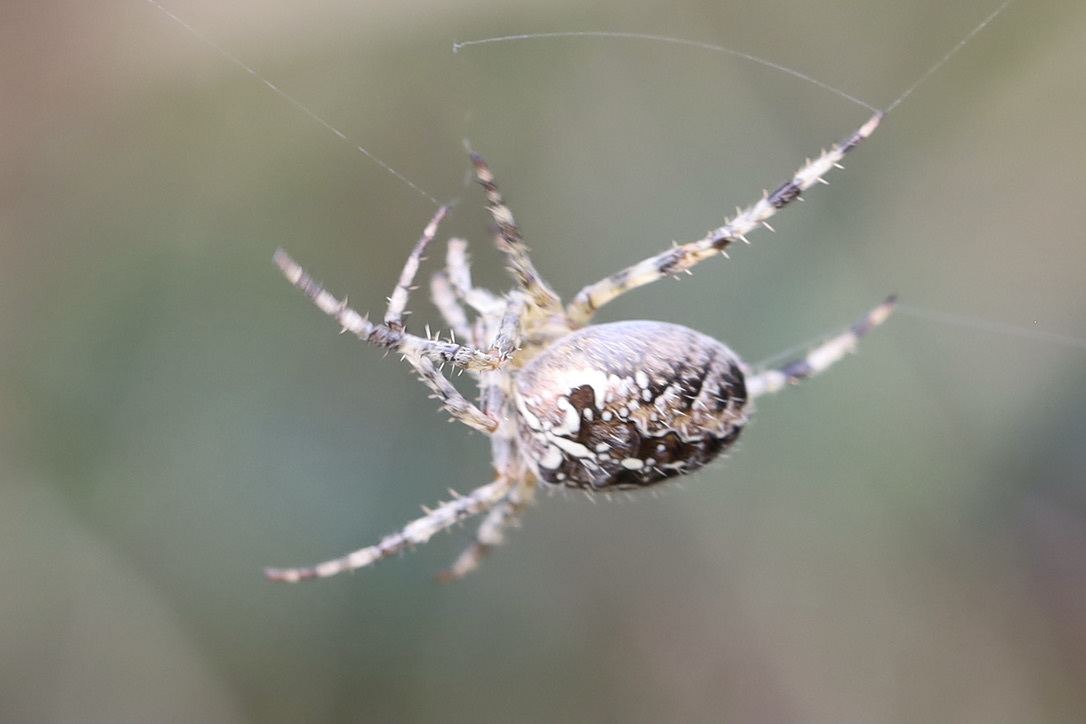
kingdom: Animalia
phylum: Arthropoda
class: Arachnida
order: Araneae
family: Araneidae
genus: Araneus
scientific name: Araneus diadematus
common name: Cross orbweaver
